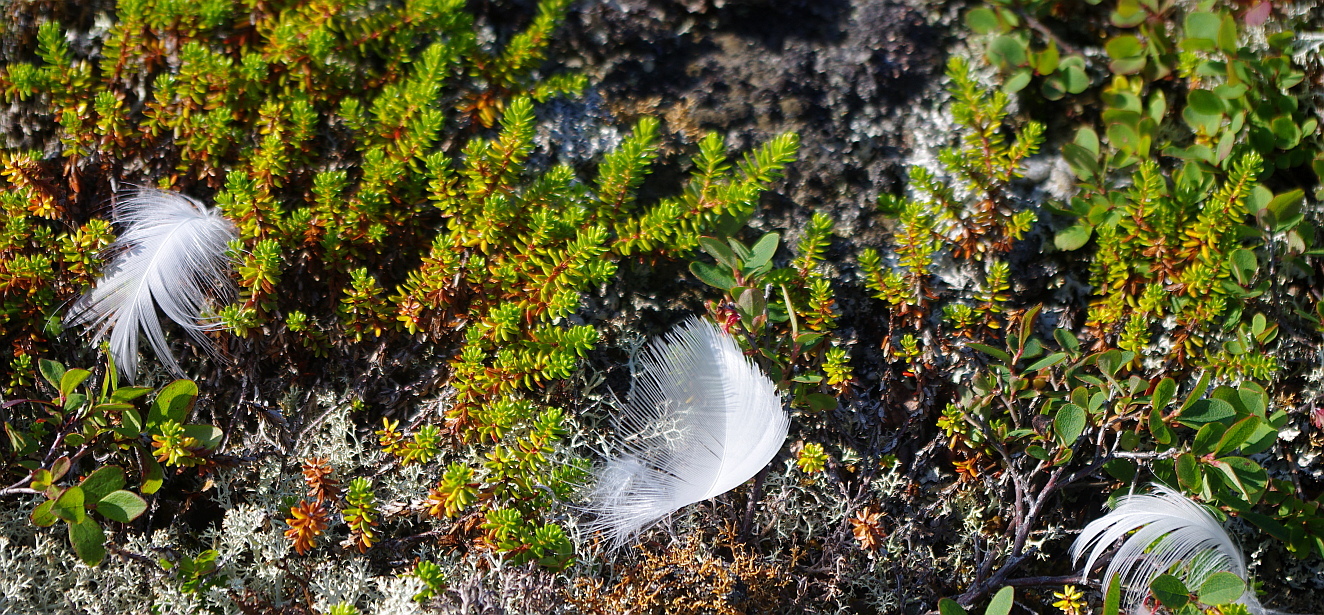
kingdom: Plantae
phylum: Tracheophyta
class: Magnoliopsida
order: Ericales
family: Ericaceae
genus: Empetrum
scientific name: Empetrum nigrum
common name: Black crowberry
